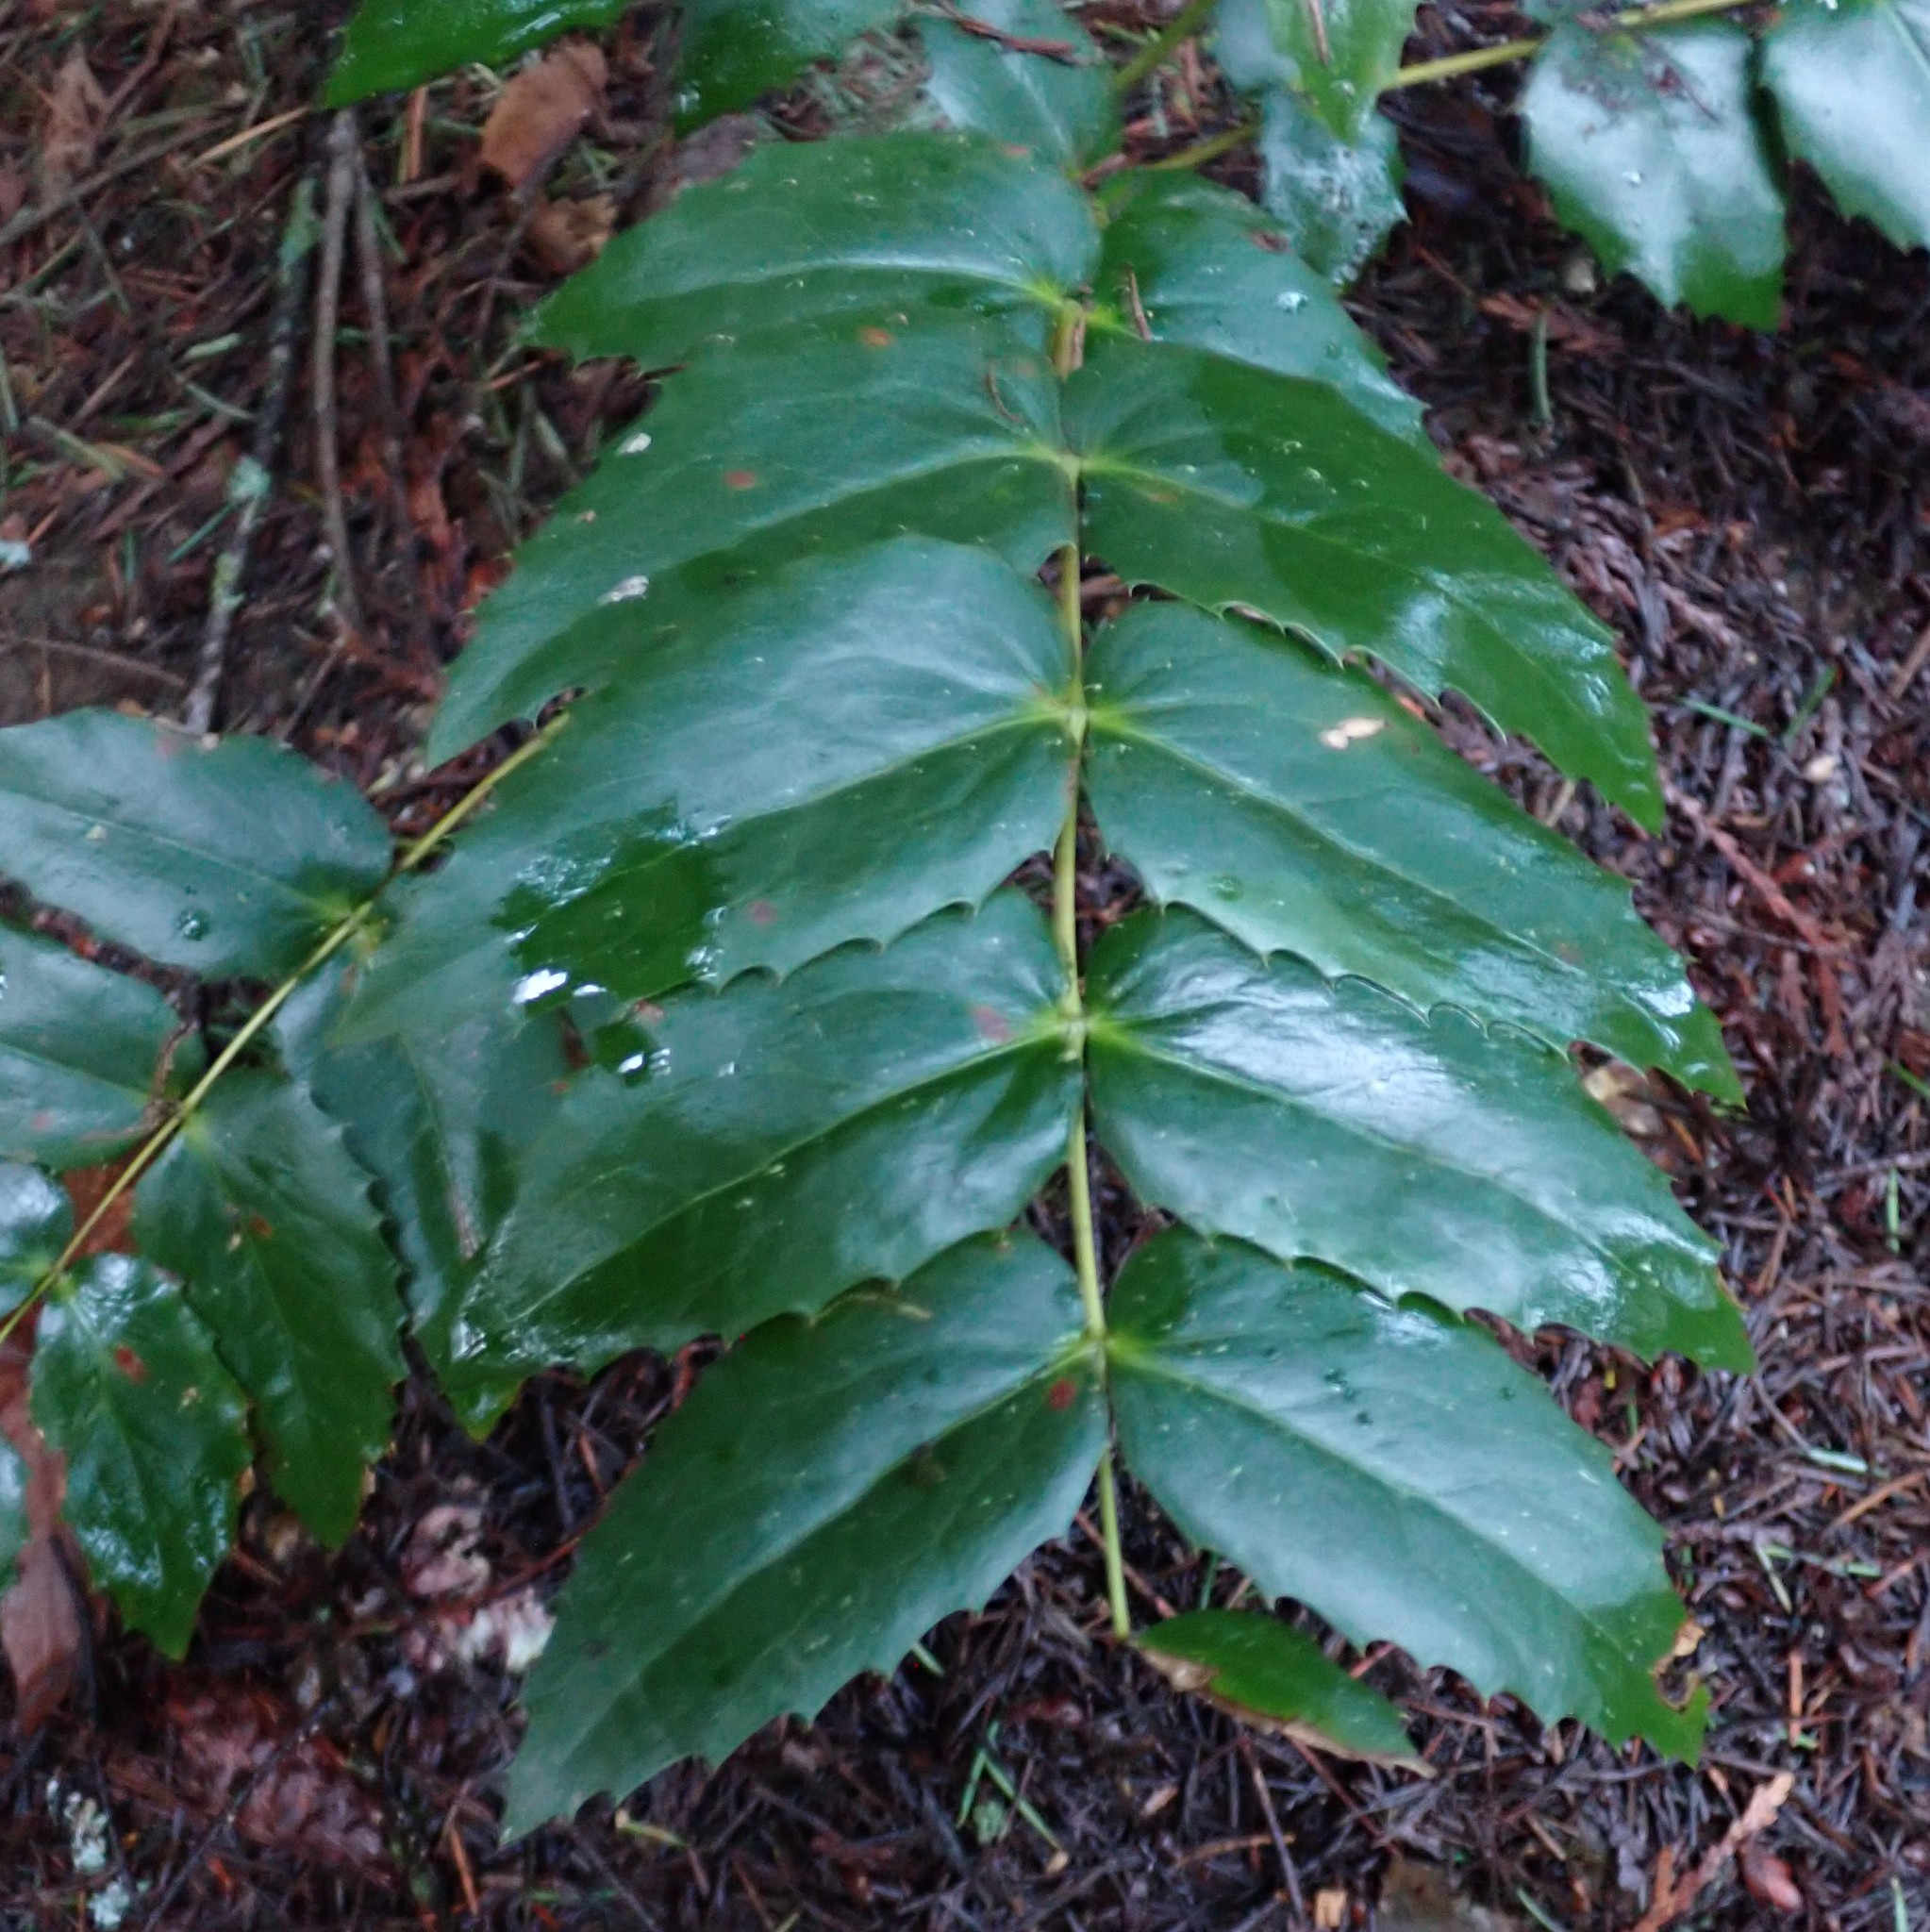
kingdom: Plantae
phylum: Tracheophyta
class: Magnoliopsida
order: Ranunculales
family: Berberidaceae
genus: Mahonia
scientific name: Mahonia nervosa
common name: Cascade oregon-grape
